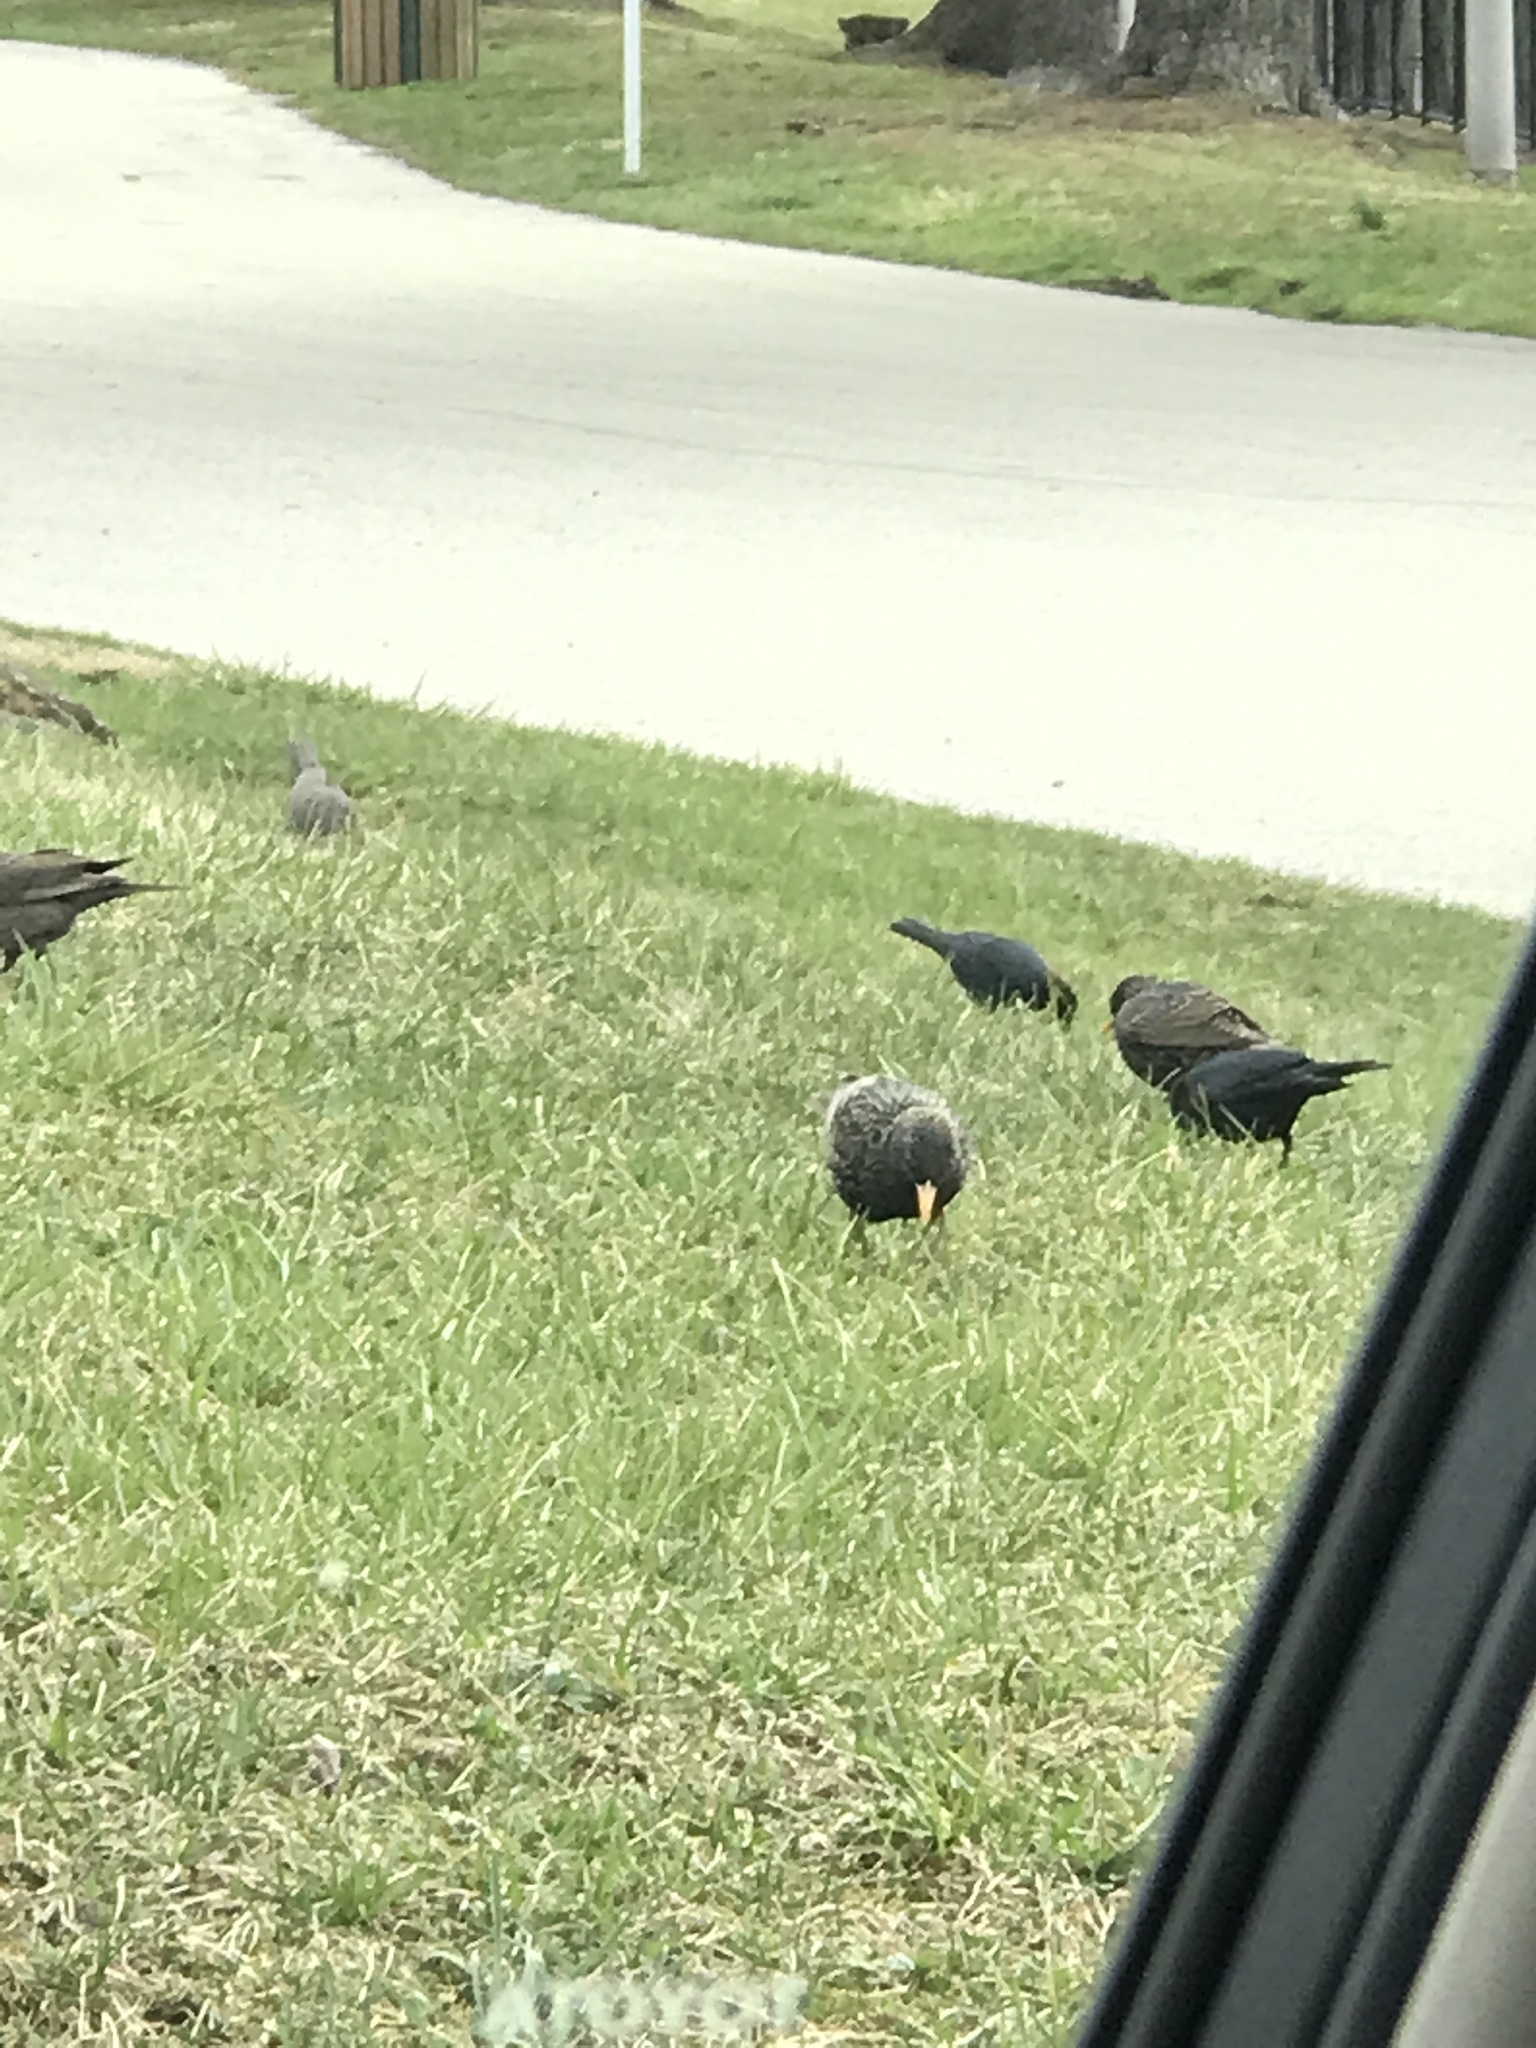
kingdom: Animalia
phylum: Chordata
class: Aves
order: Passeriformes
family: Sturnidae
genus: Sturnus
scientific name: Sturnus vulgaris
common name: Common starling
